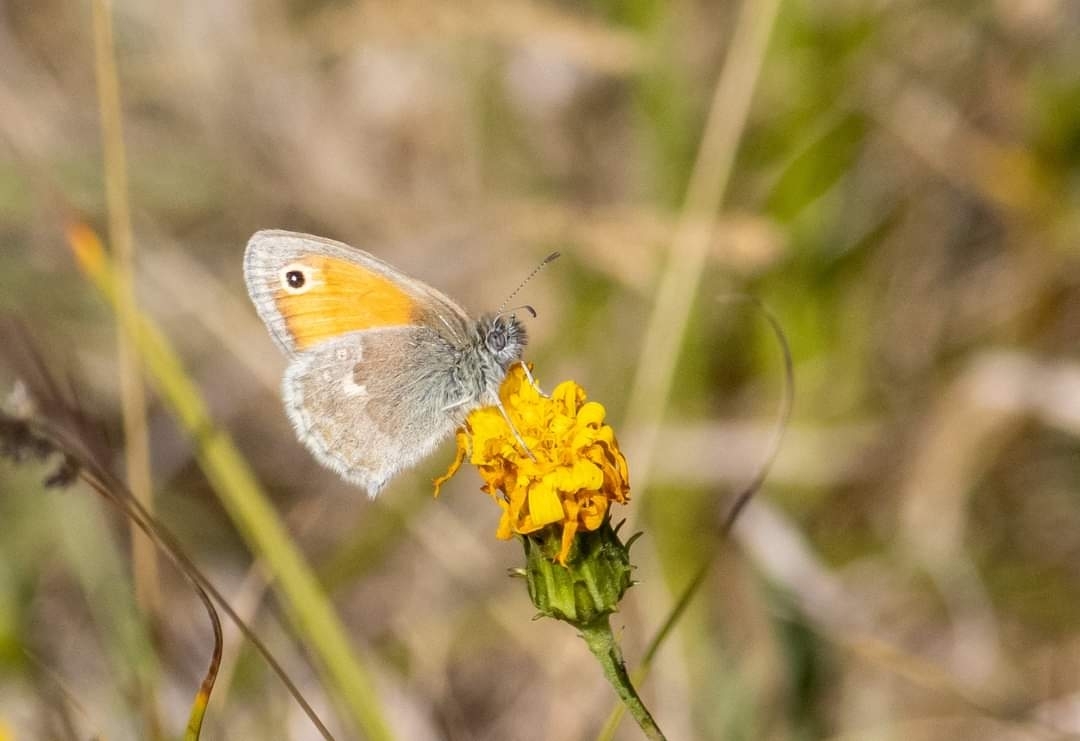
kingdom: Animalia
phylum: Arthropoda
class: Insecta
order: Lepidoptera
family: Nymphalidae
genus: Coenonympha
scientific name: Coenonympha pamphilus
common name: Small heath
